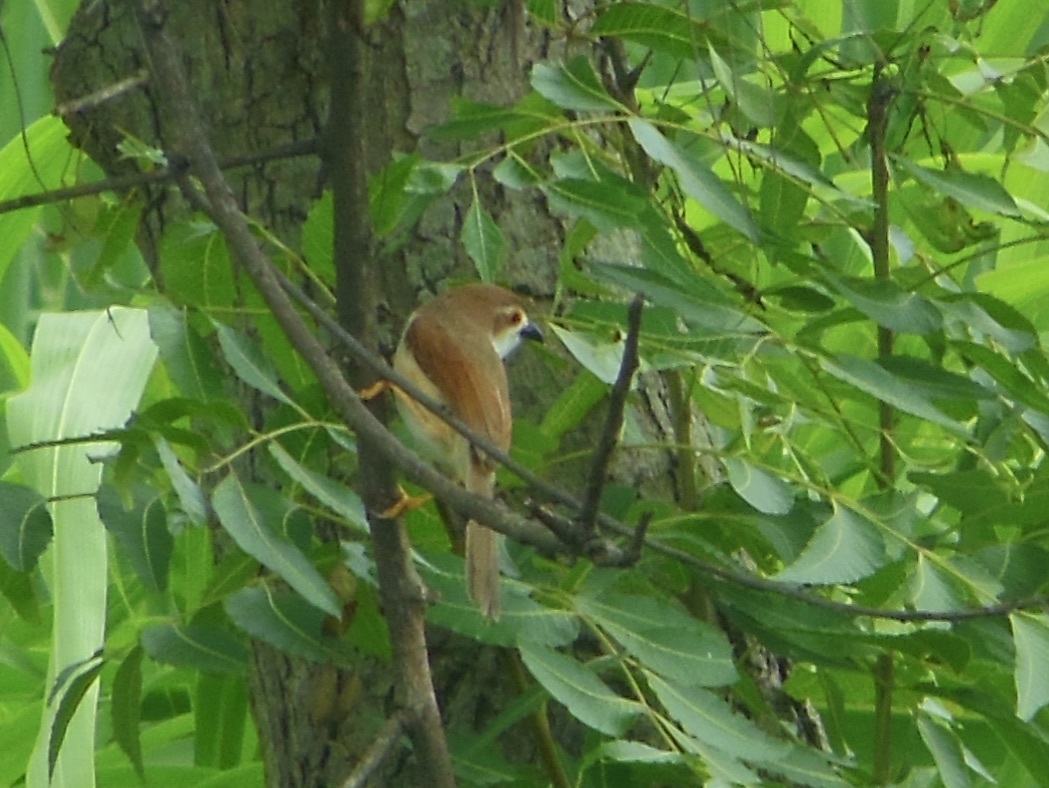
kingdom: Animalia
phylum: Chordata
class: Aves
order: Passeriformes
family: Sylviidae
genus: Chrysomma
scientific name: Chrysomma sinense
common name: Yellow-eyed babbler
